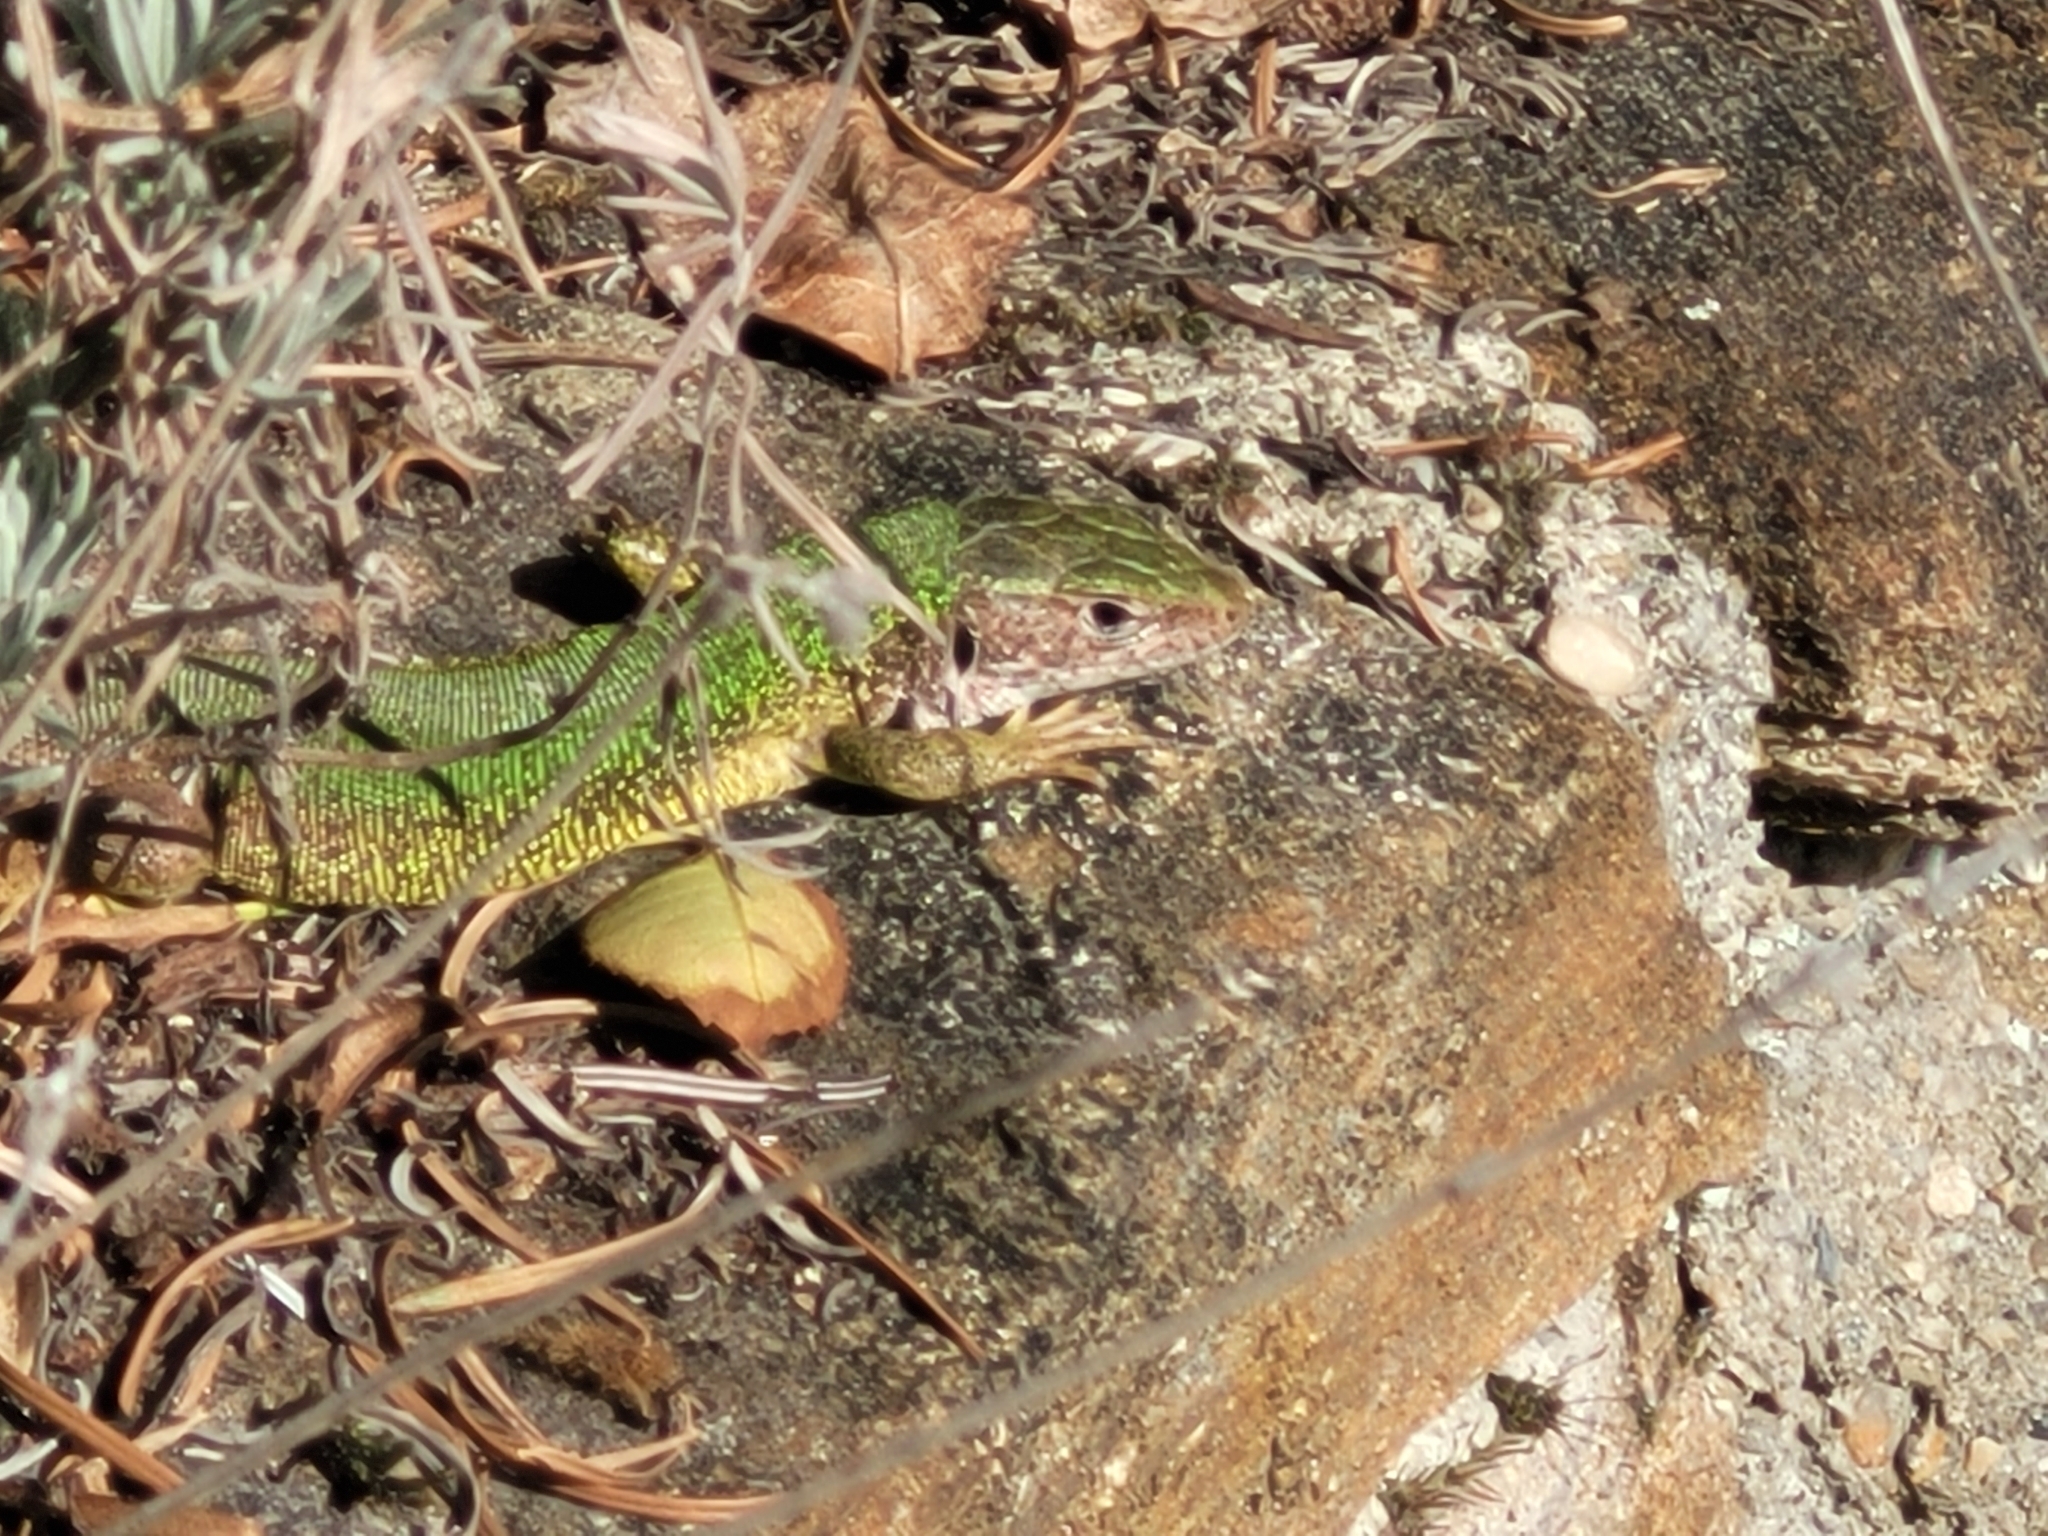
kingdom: Animalia
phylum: Chordata
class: Squamata
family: Lacertidae
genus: Lacerta
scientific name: Lacerta viridis
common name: European green lizard
